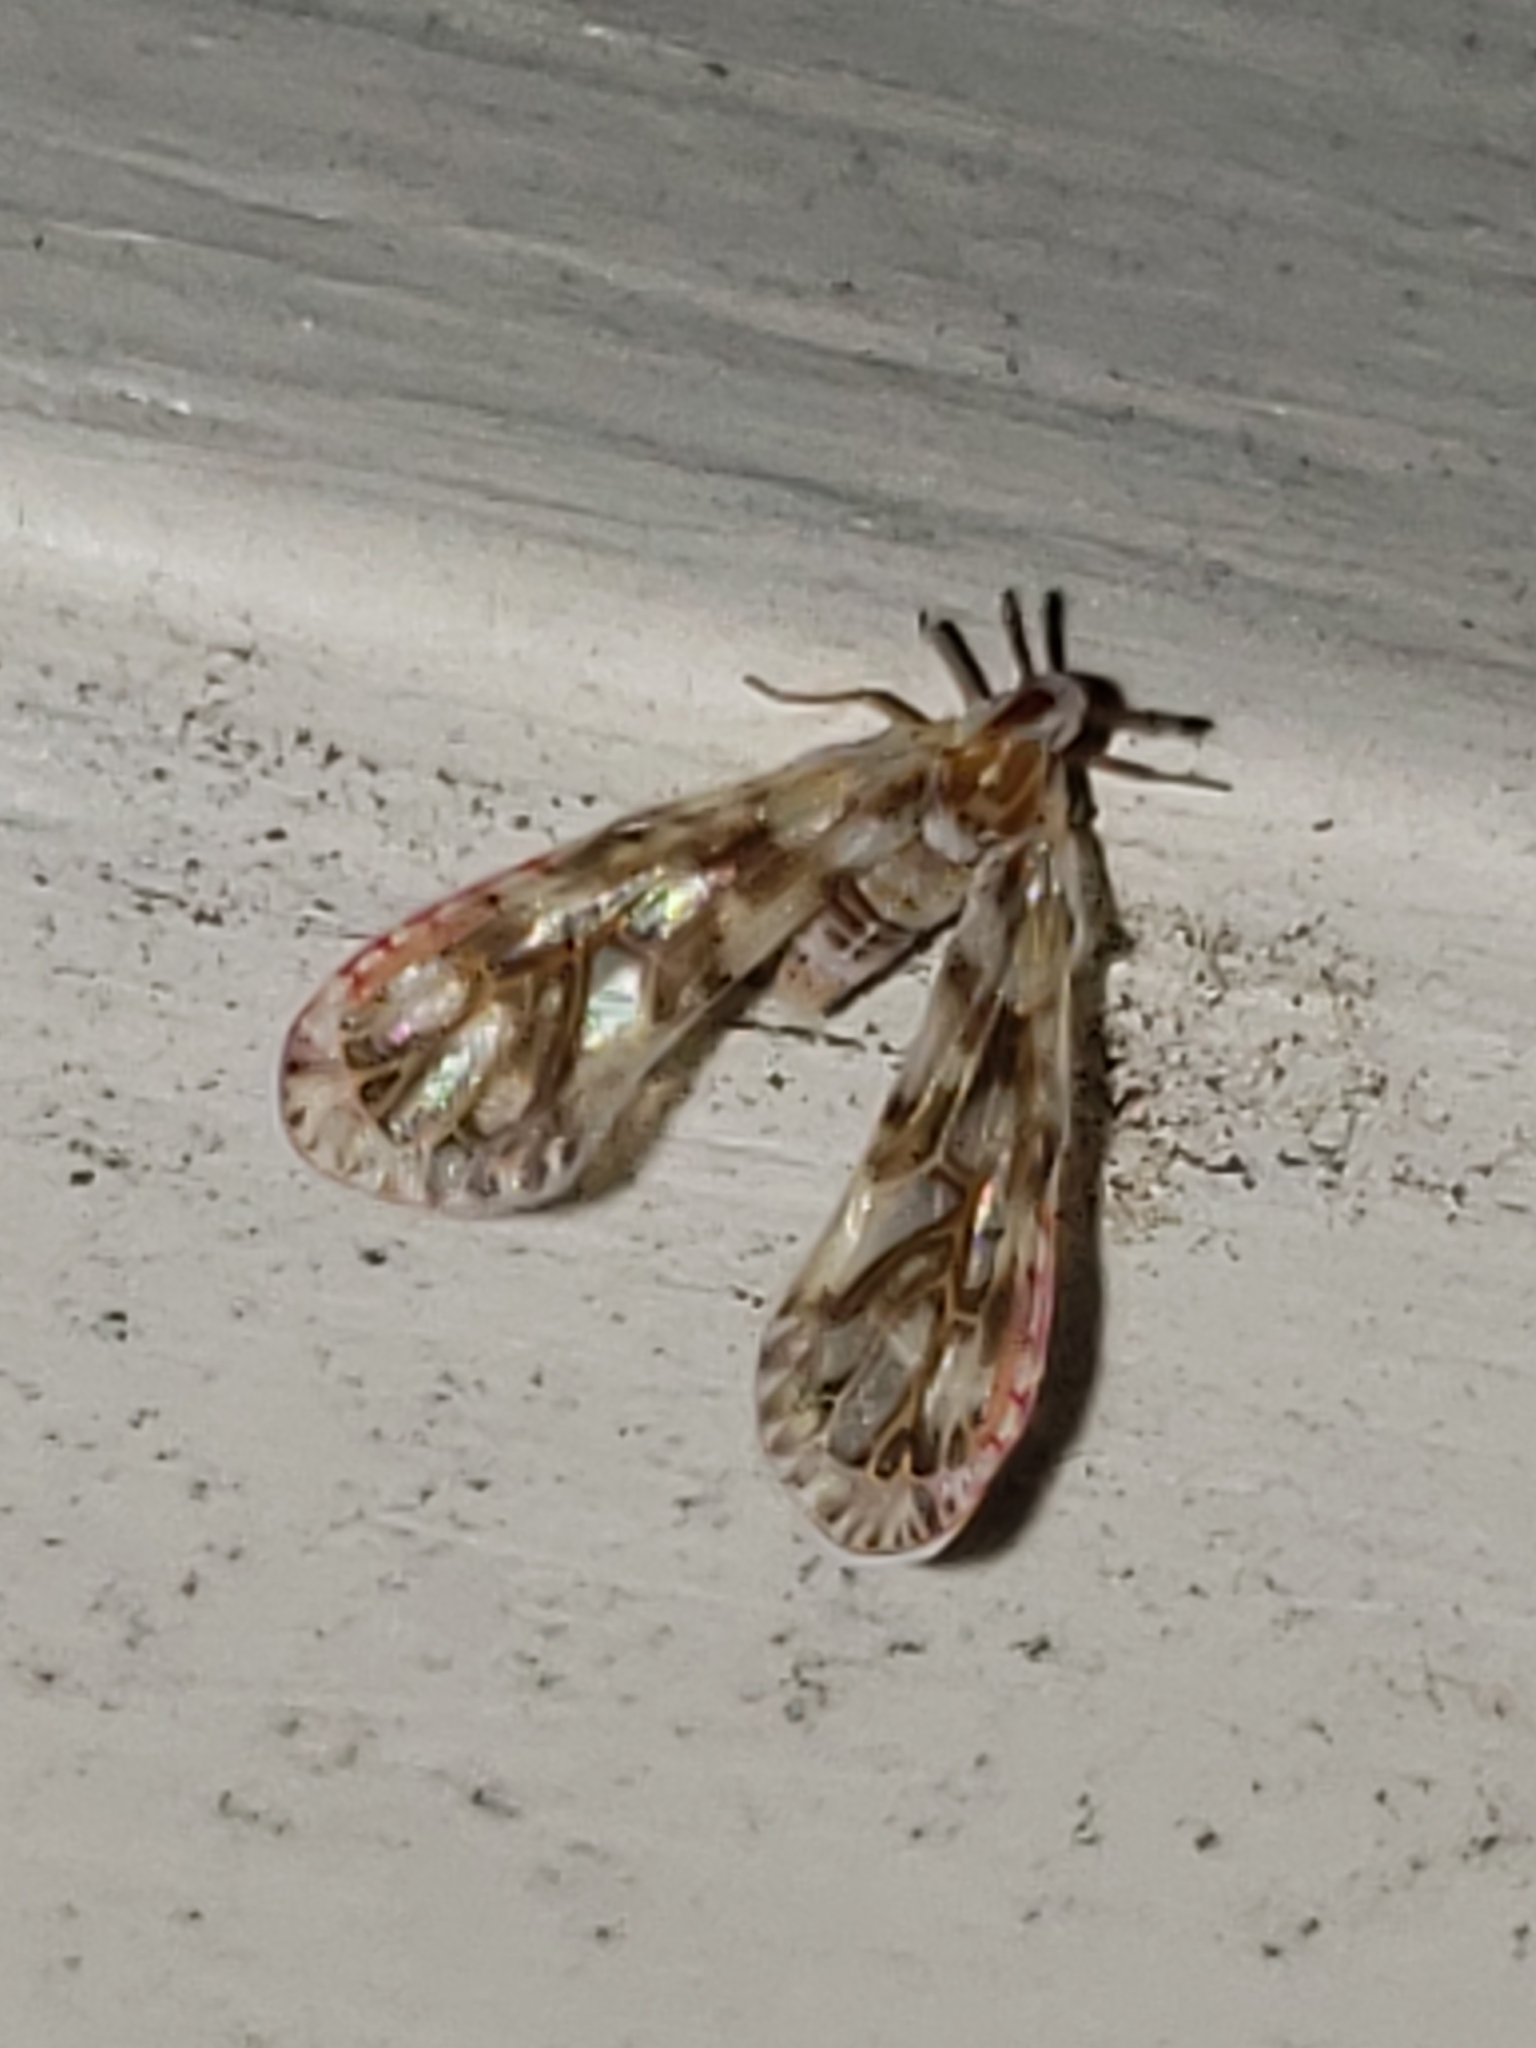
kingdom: Animalia
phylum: Arthropoda
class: Insecta
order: Hemiptera
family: Derbidae
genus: Anotia
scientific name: Anotia kirkaldyi
